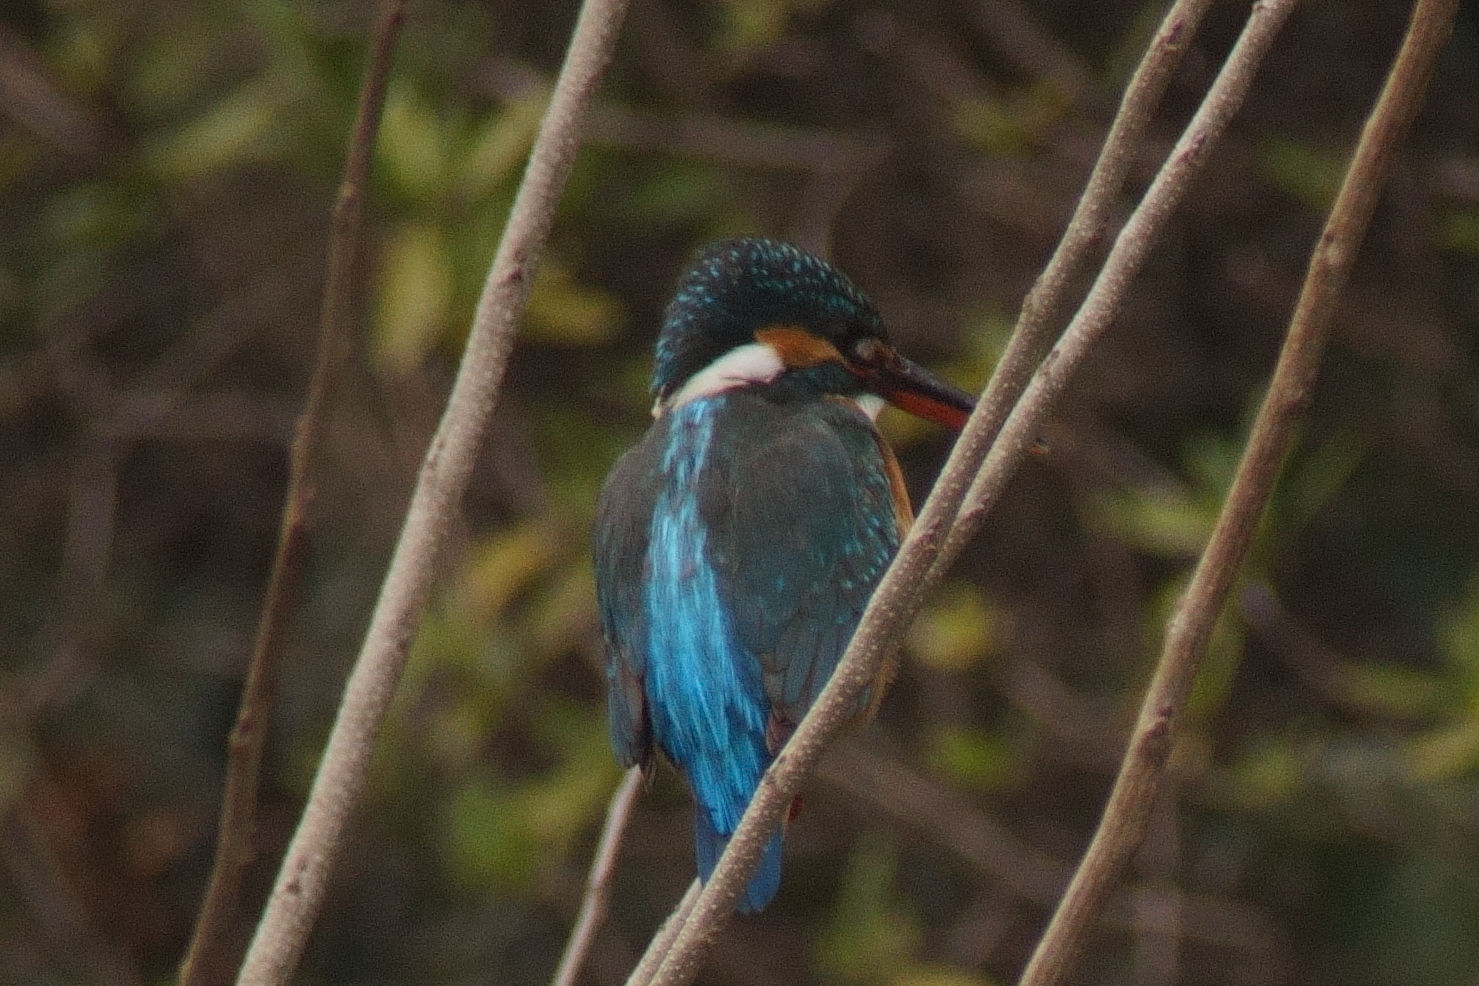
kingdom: Animalia
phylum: Chordata
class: Aves
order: Coraciiformes
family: Alcedinidae
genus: Alcedo
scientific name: Alcedo atthis
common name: Common kingfisher
